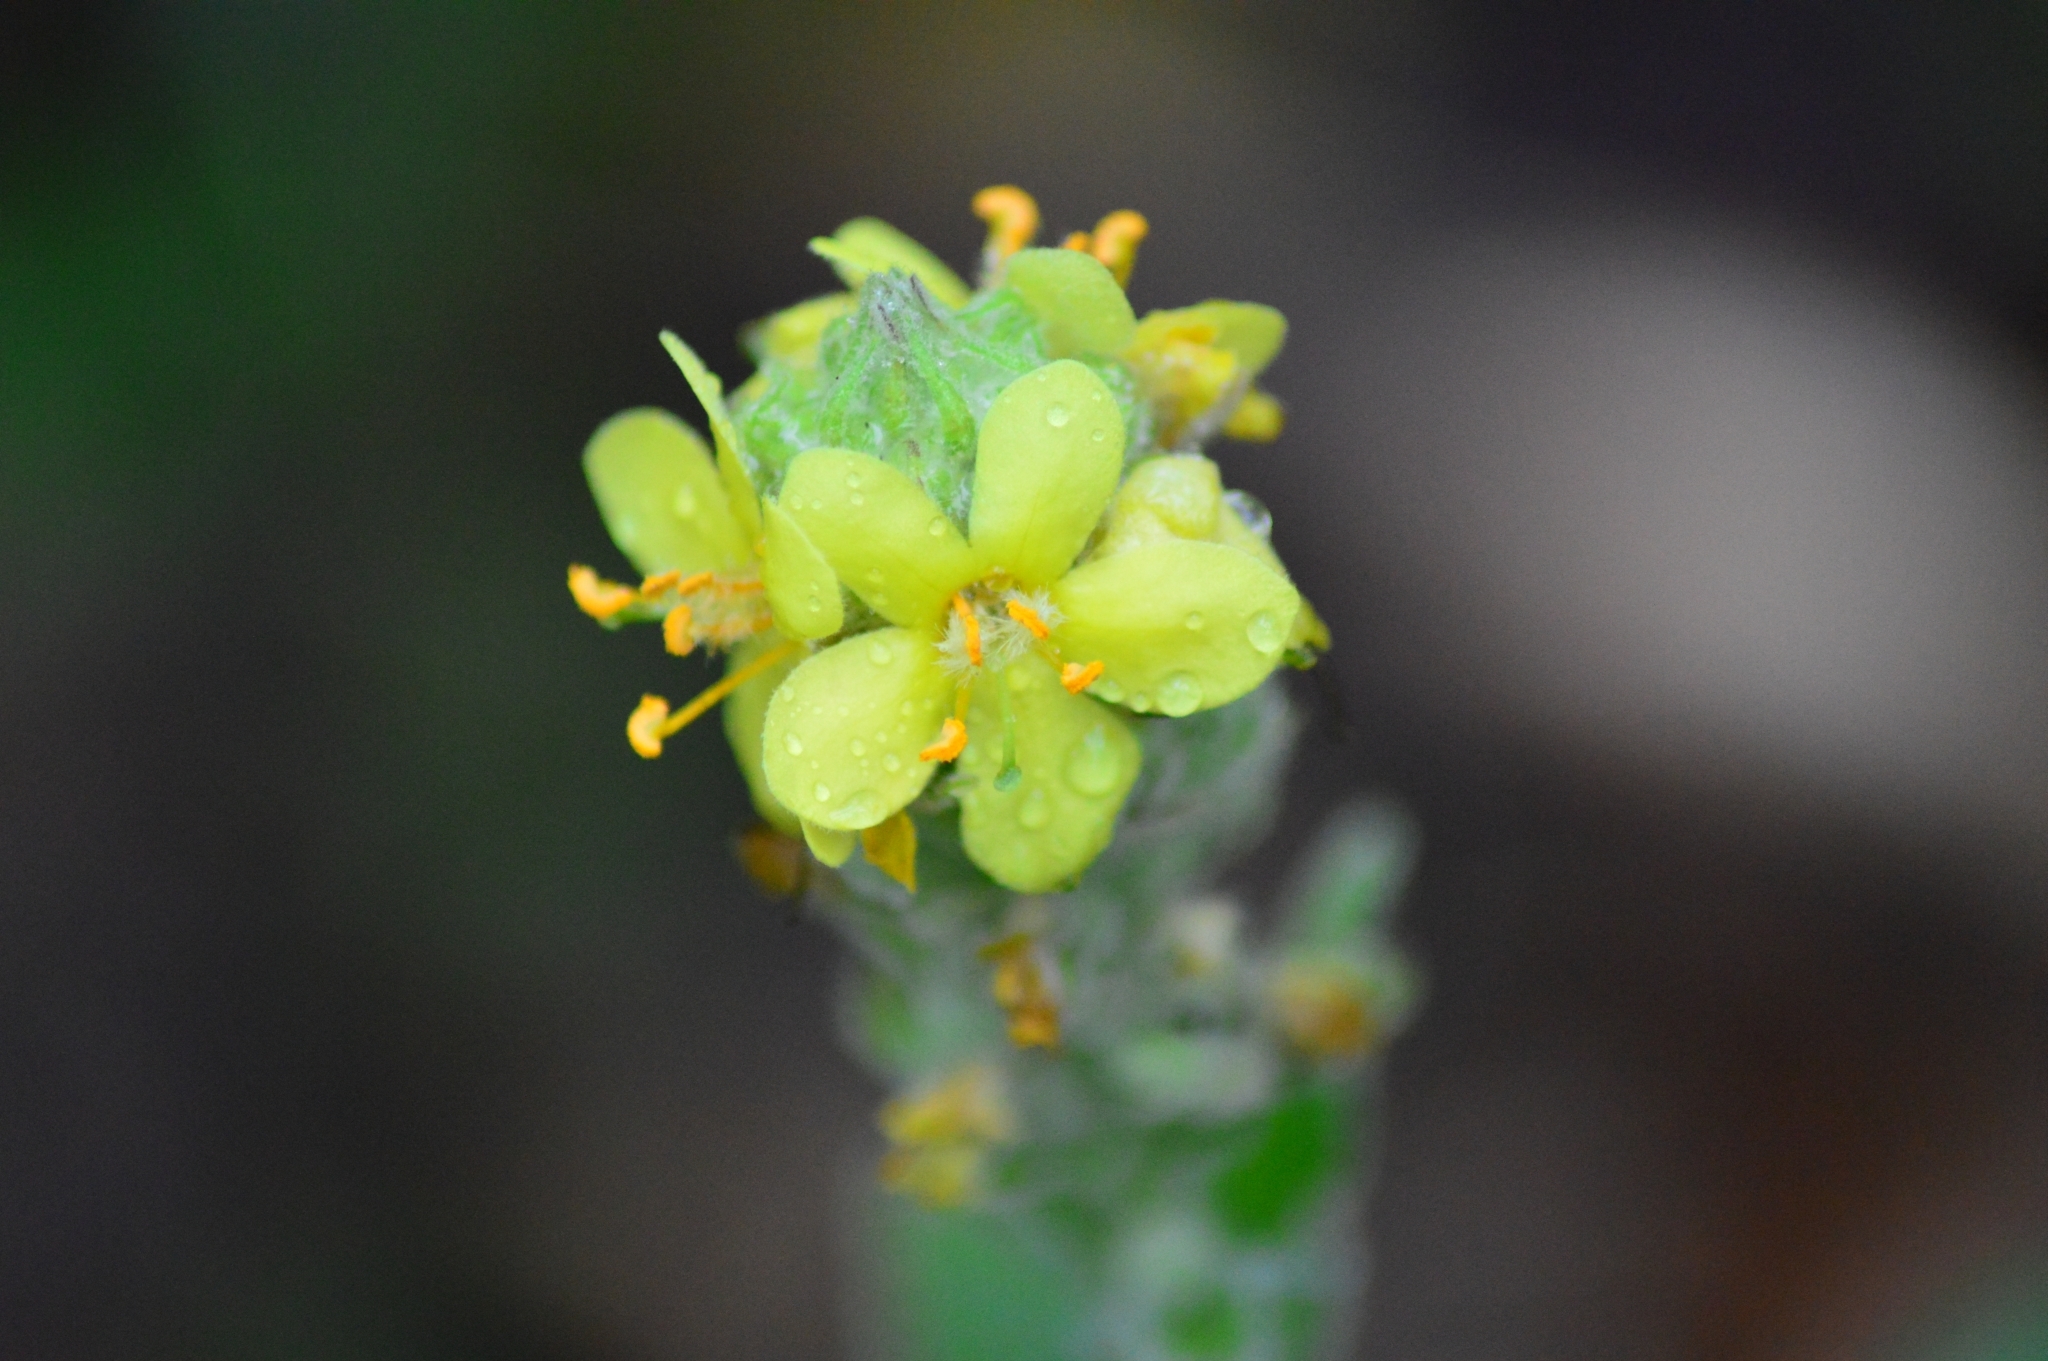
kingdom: Plantae
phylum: Tracheophyta
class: Magnoliopsida
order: Lamiales
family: Scrophulariaceae
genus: Verbascum
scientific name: Verbascum thapsus
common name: Common mullein
